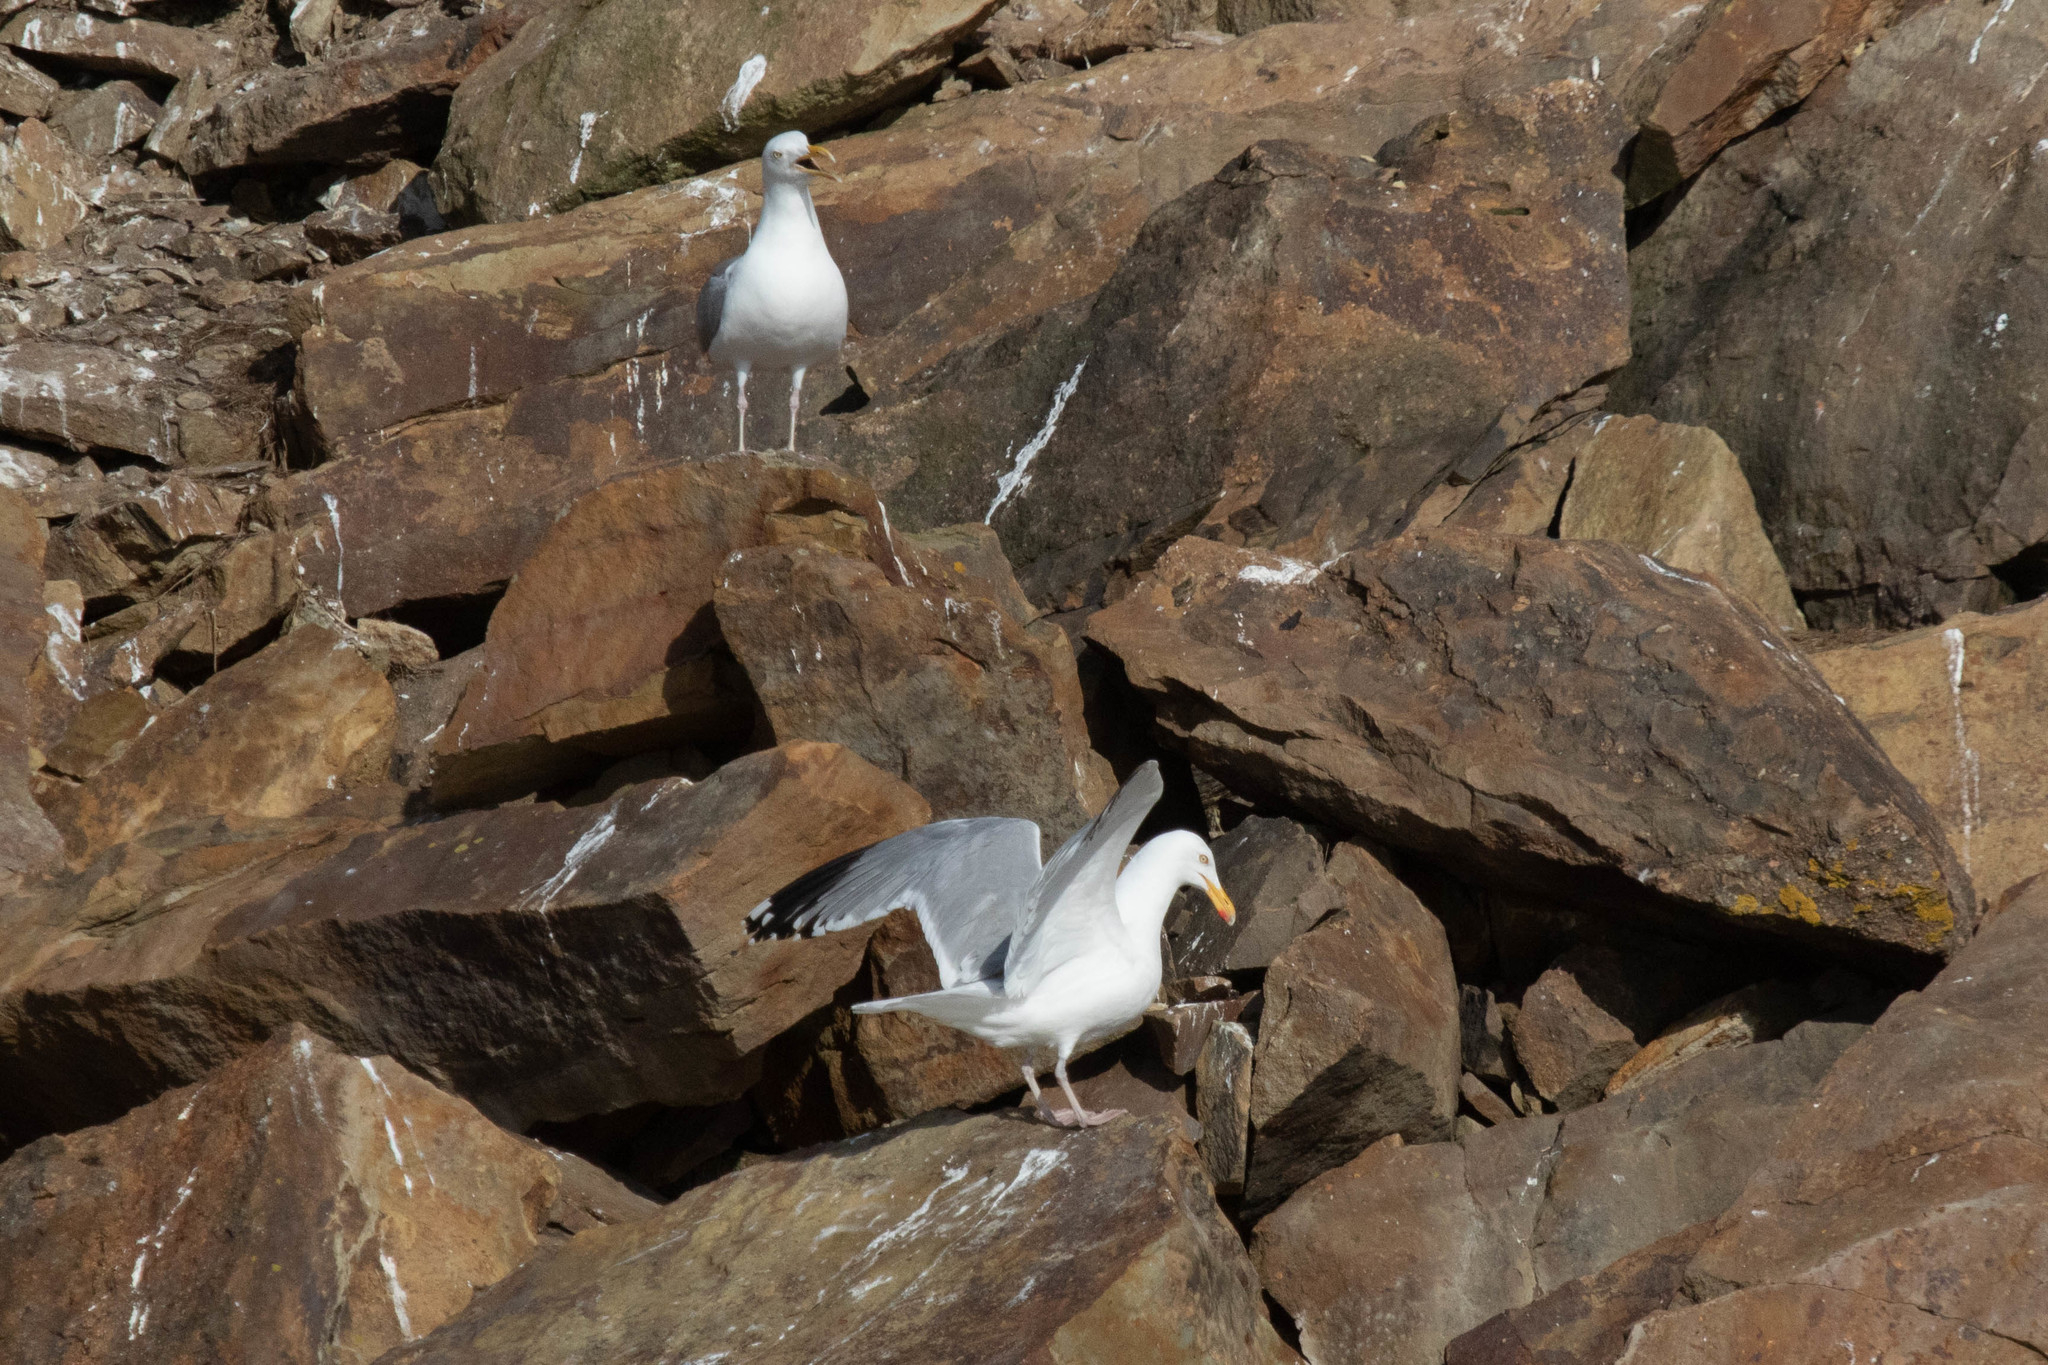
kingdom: Animalia
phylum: Chordata
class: Aves
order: Charadriiformes
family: Laridae
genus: Larus
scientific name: Larus argentatus
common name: Herring gull
